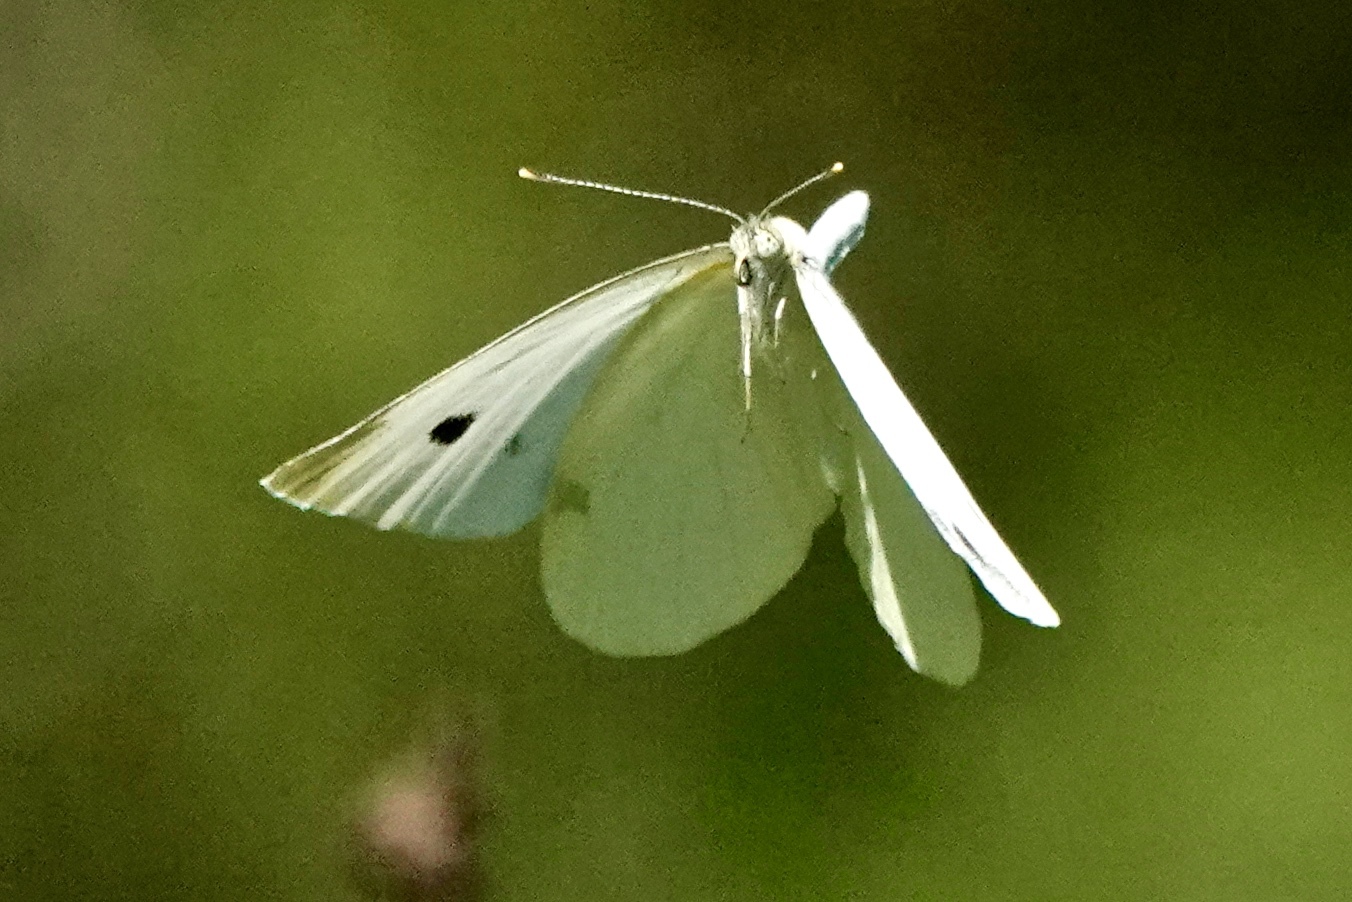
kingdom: Animalia
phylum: Arthropoda
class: Insecta
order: Lepidoptera
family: Pieridae
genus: Pieris
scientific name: Pieris rapae
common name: Small white
